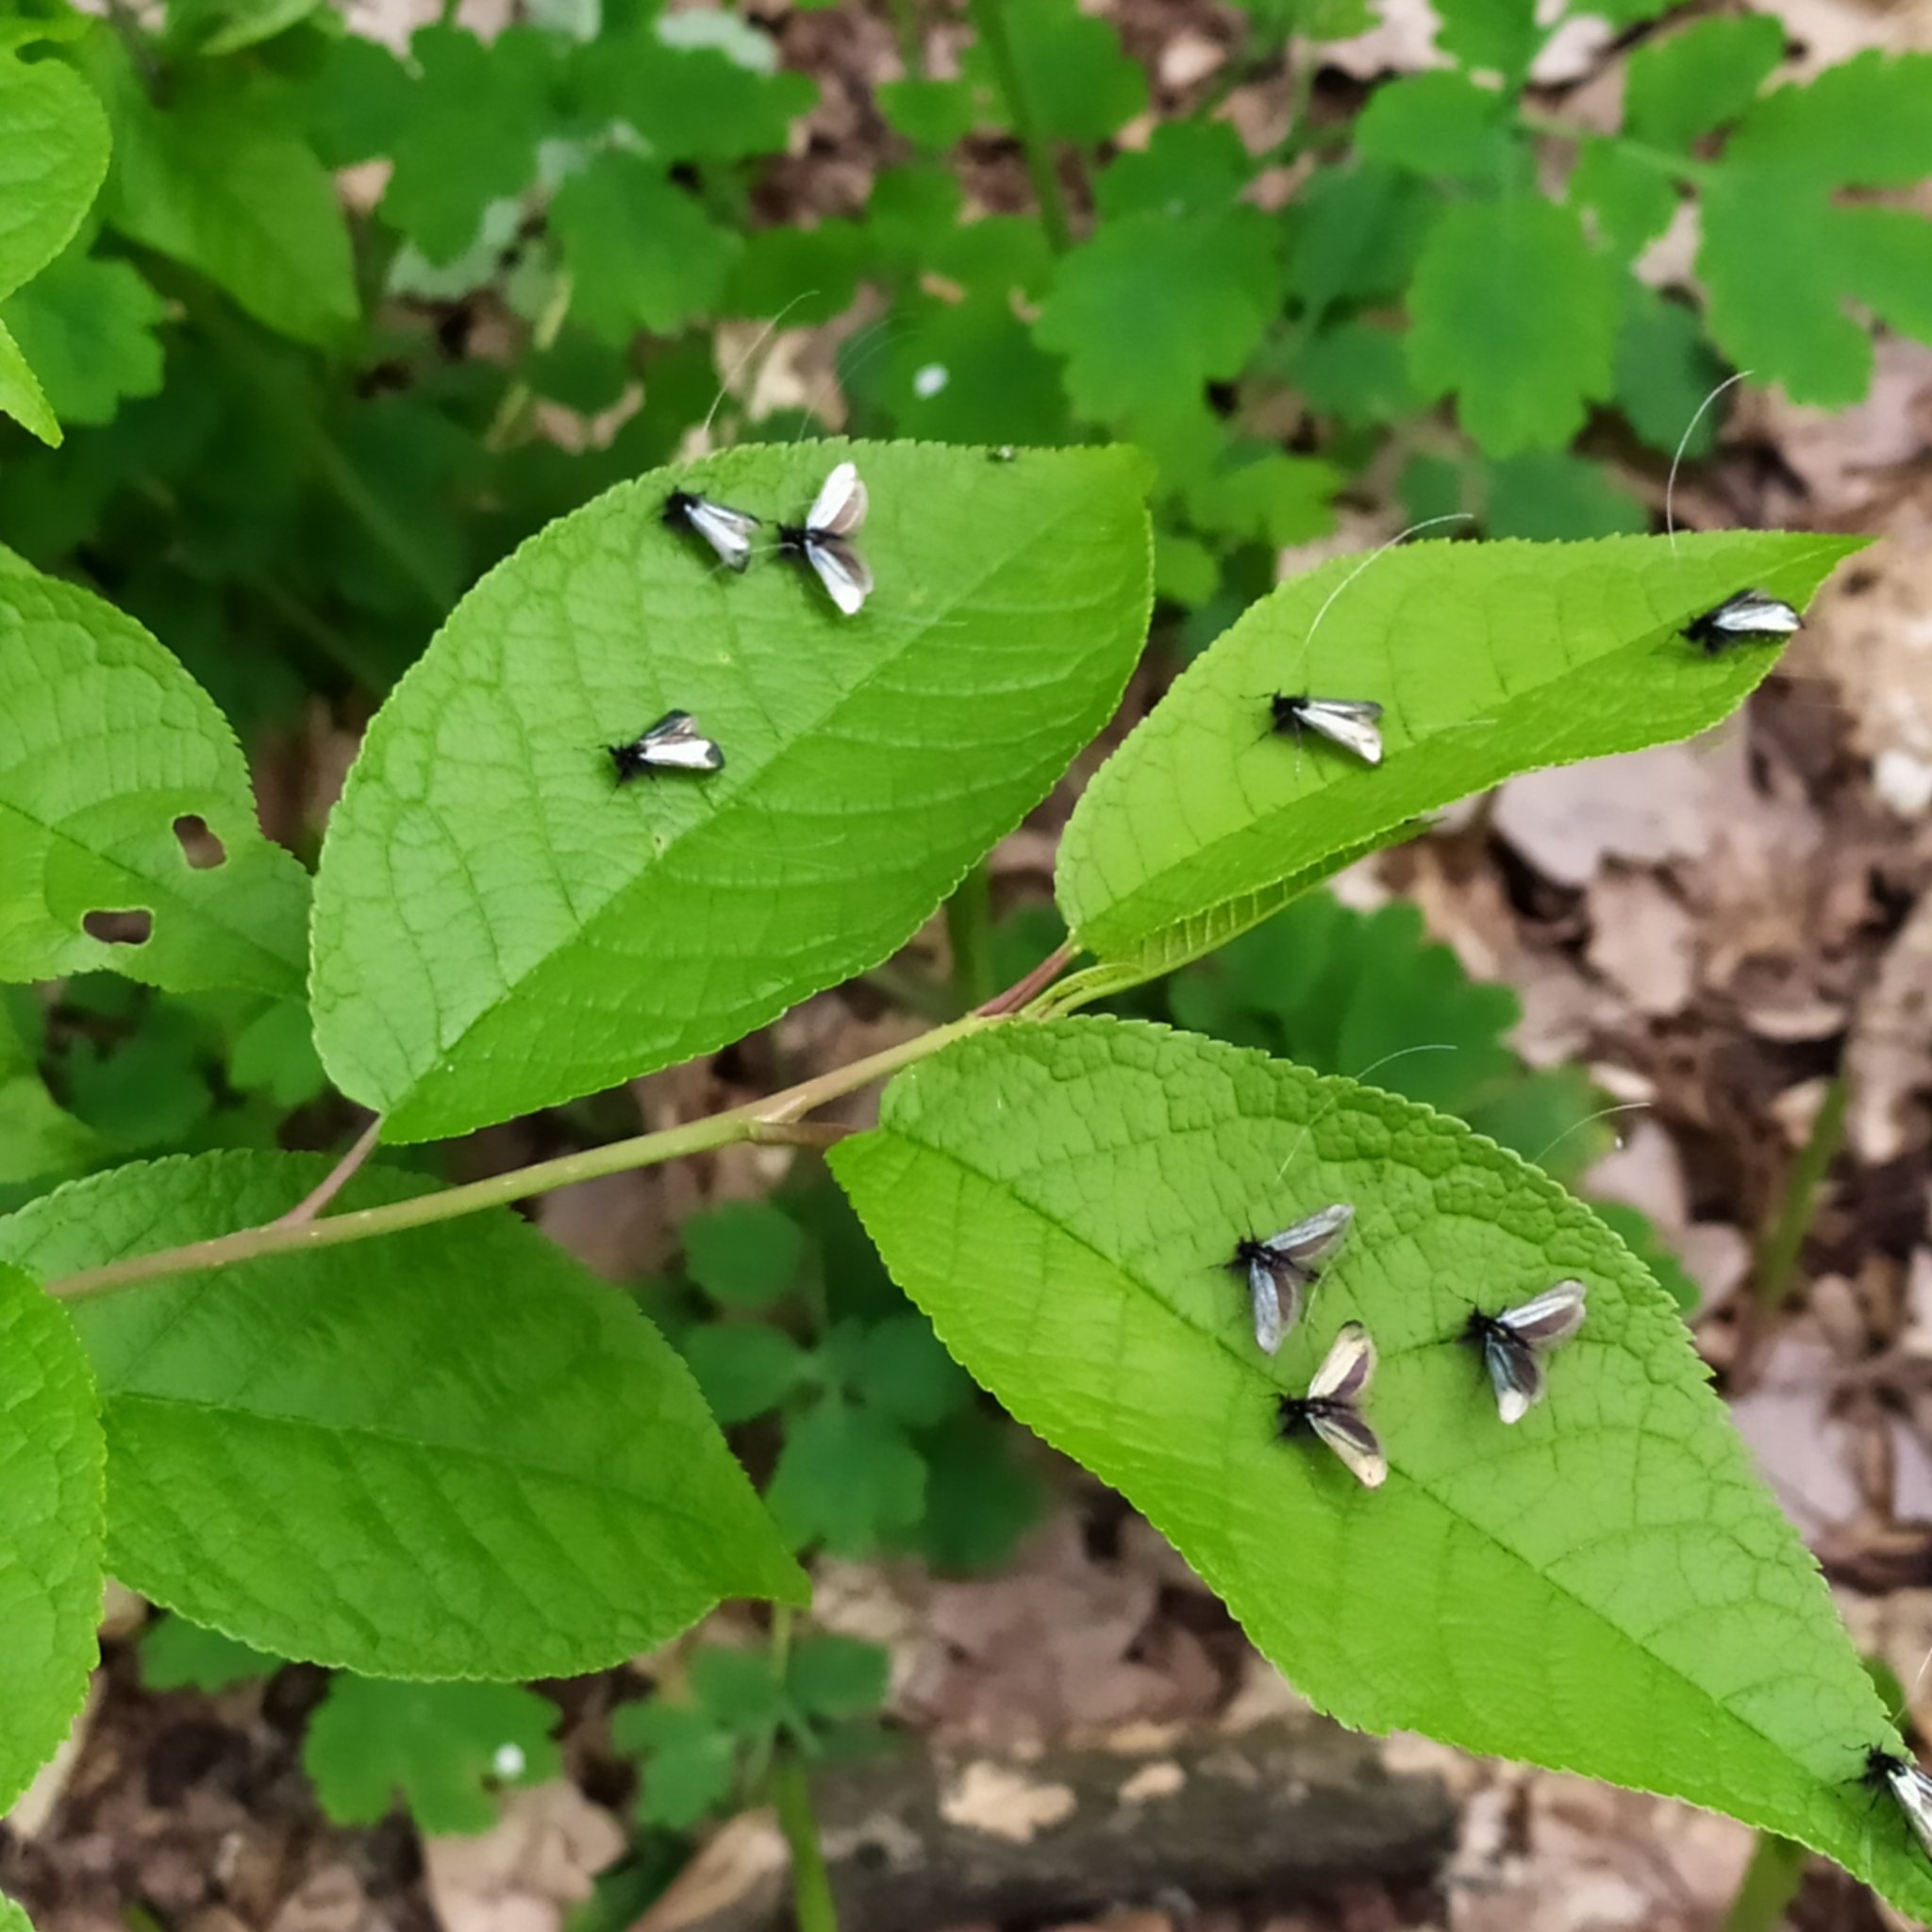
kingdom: Animalia
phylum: Arthropoda
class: Insecta
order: Lepidoptera
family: Adelidae
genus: Adela
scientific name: Adela viridella
